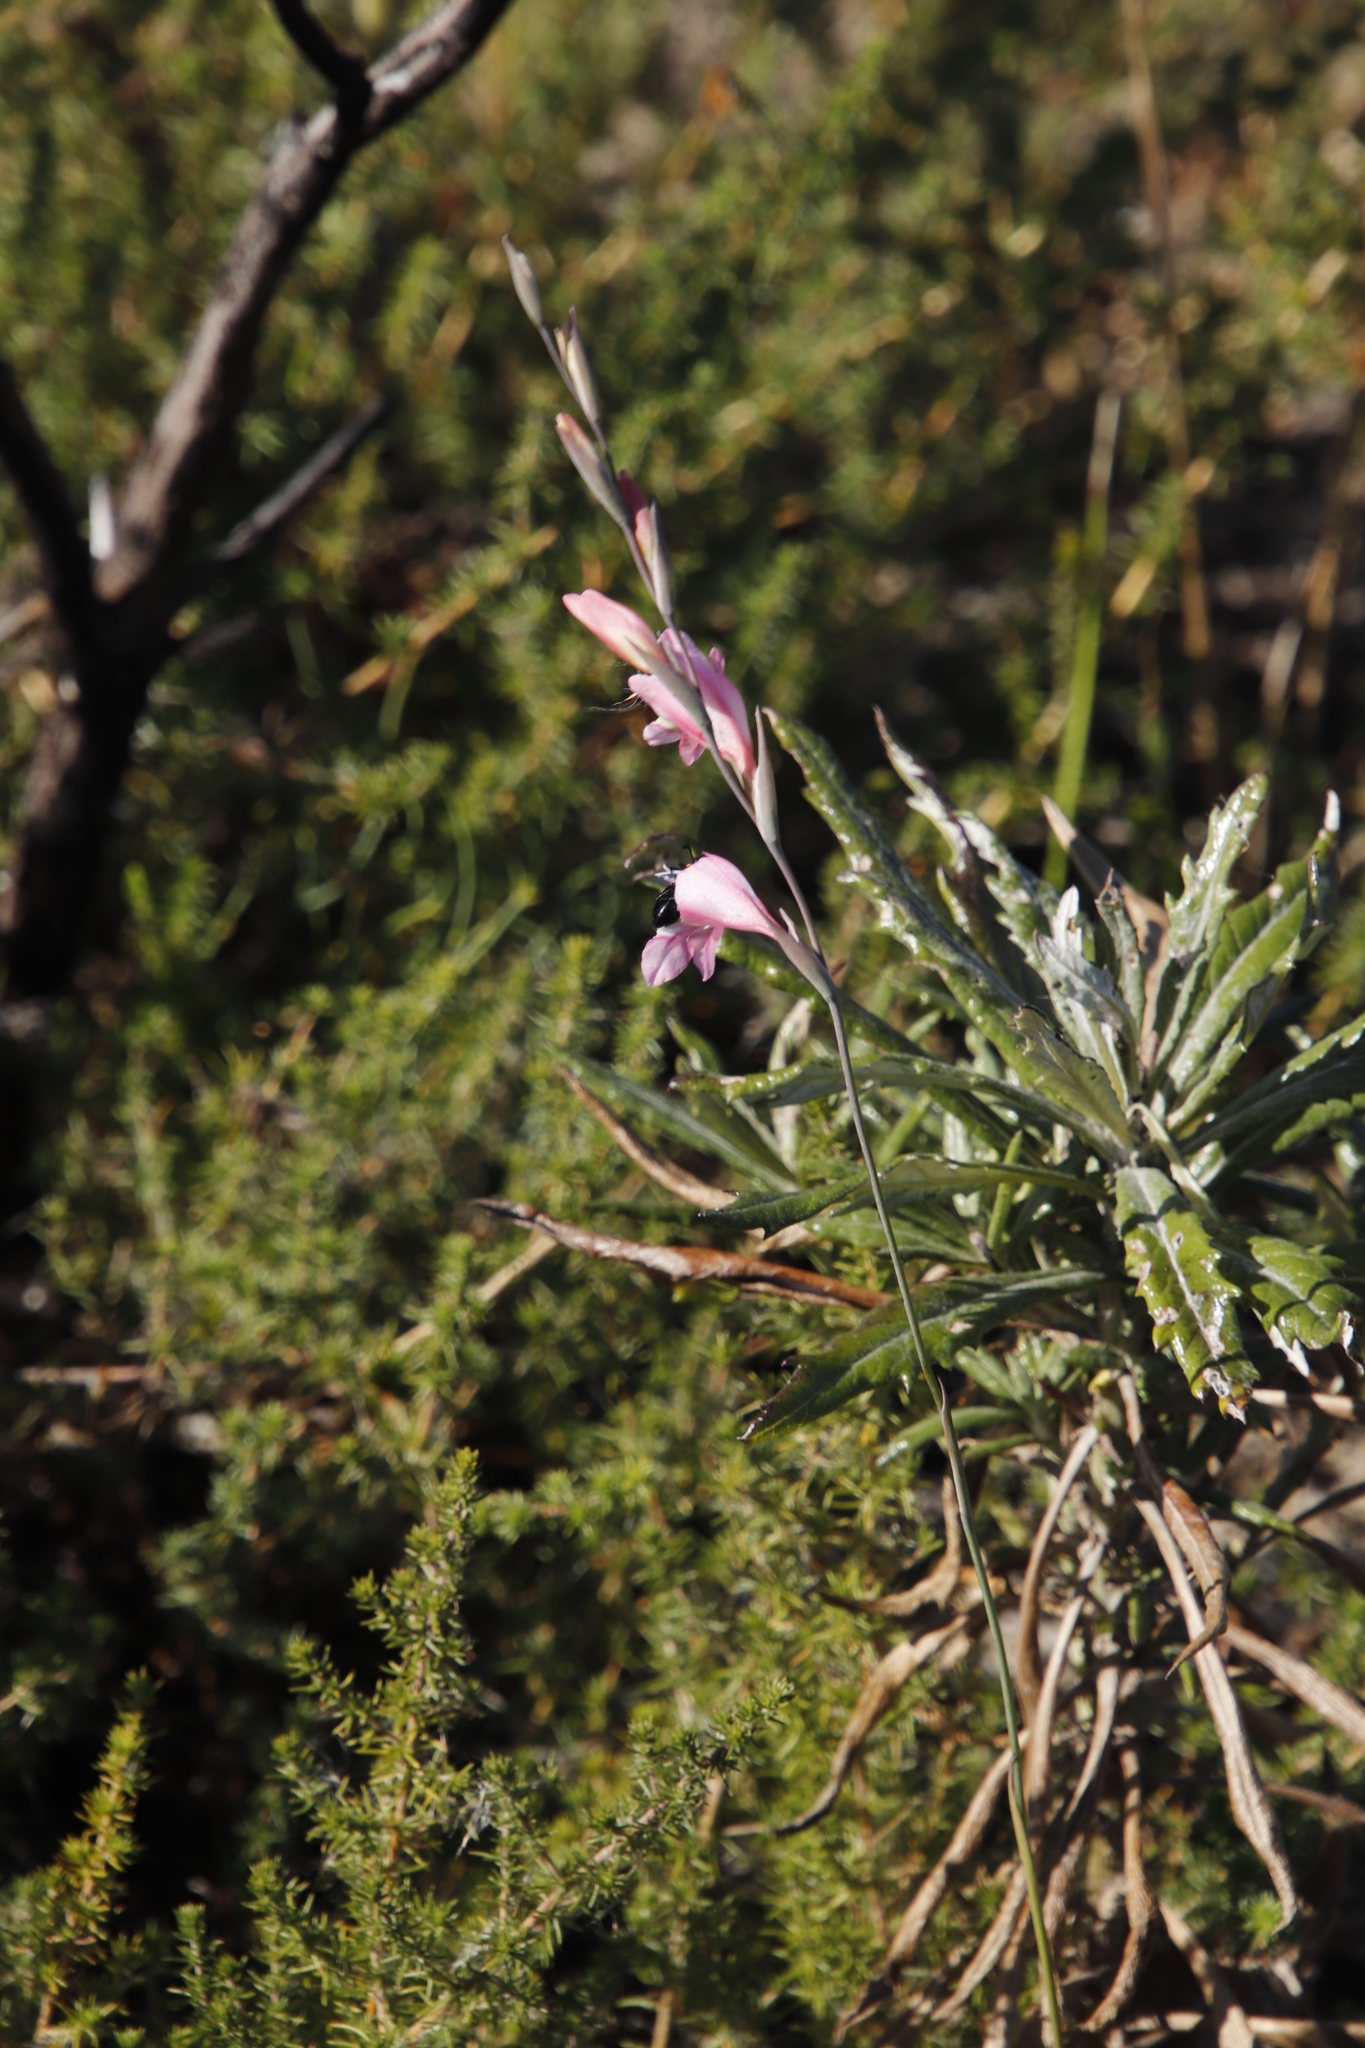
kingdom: Plantae
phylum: Tracheophyta
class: Liliopsida
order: Asparagales
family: Iridaceae
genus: Gladiolus
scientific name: Gladiolus brevifolius
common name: March pypie
